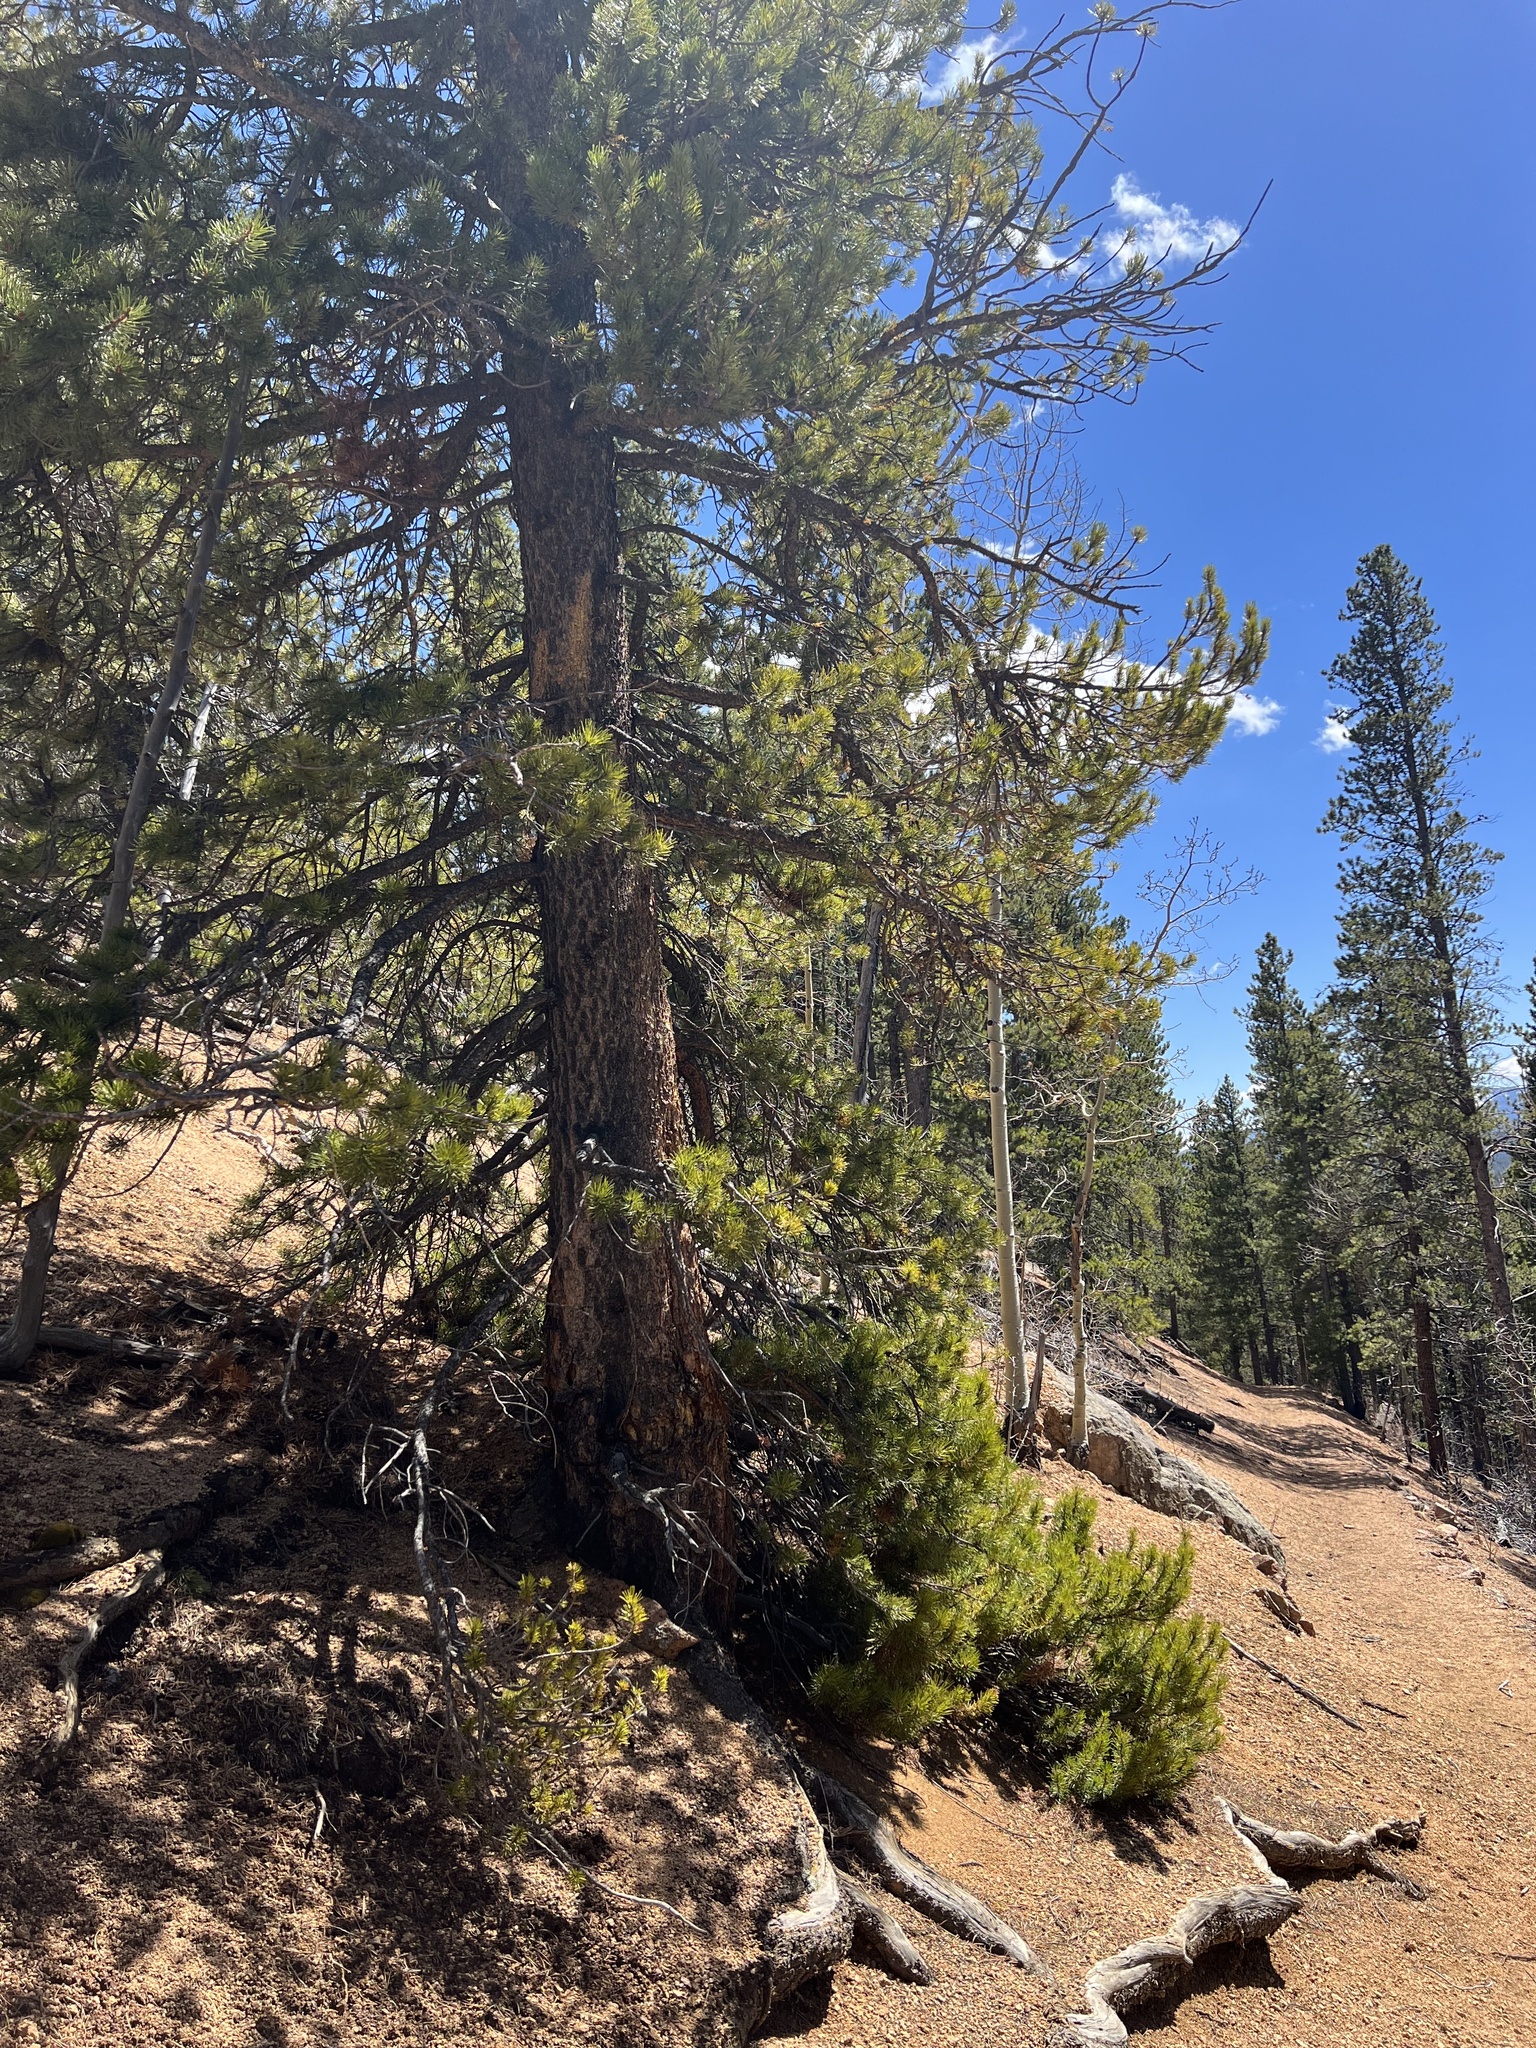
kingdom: Plantae
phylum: Tracheophyta
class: Magnoliopsida
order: Santalales
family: Viscaceae
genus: Arceuthobium
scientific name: Arceuthobium americanum
